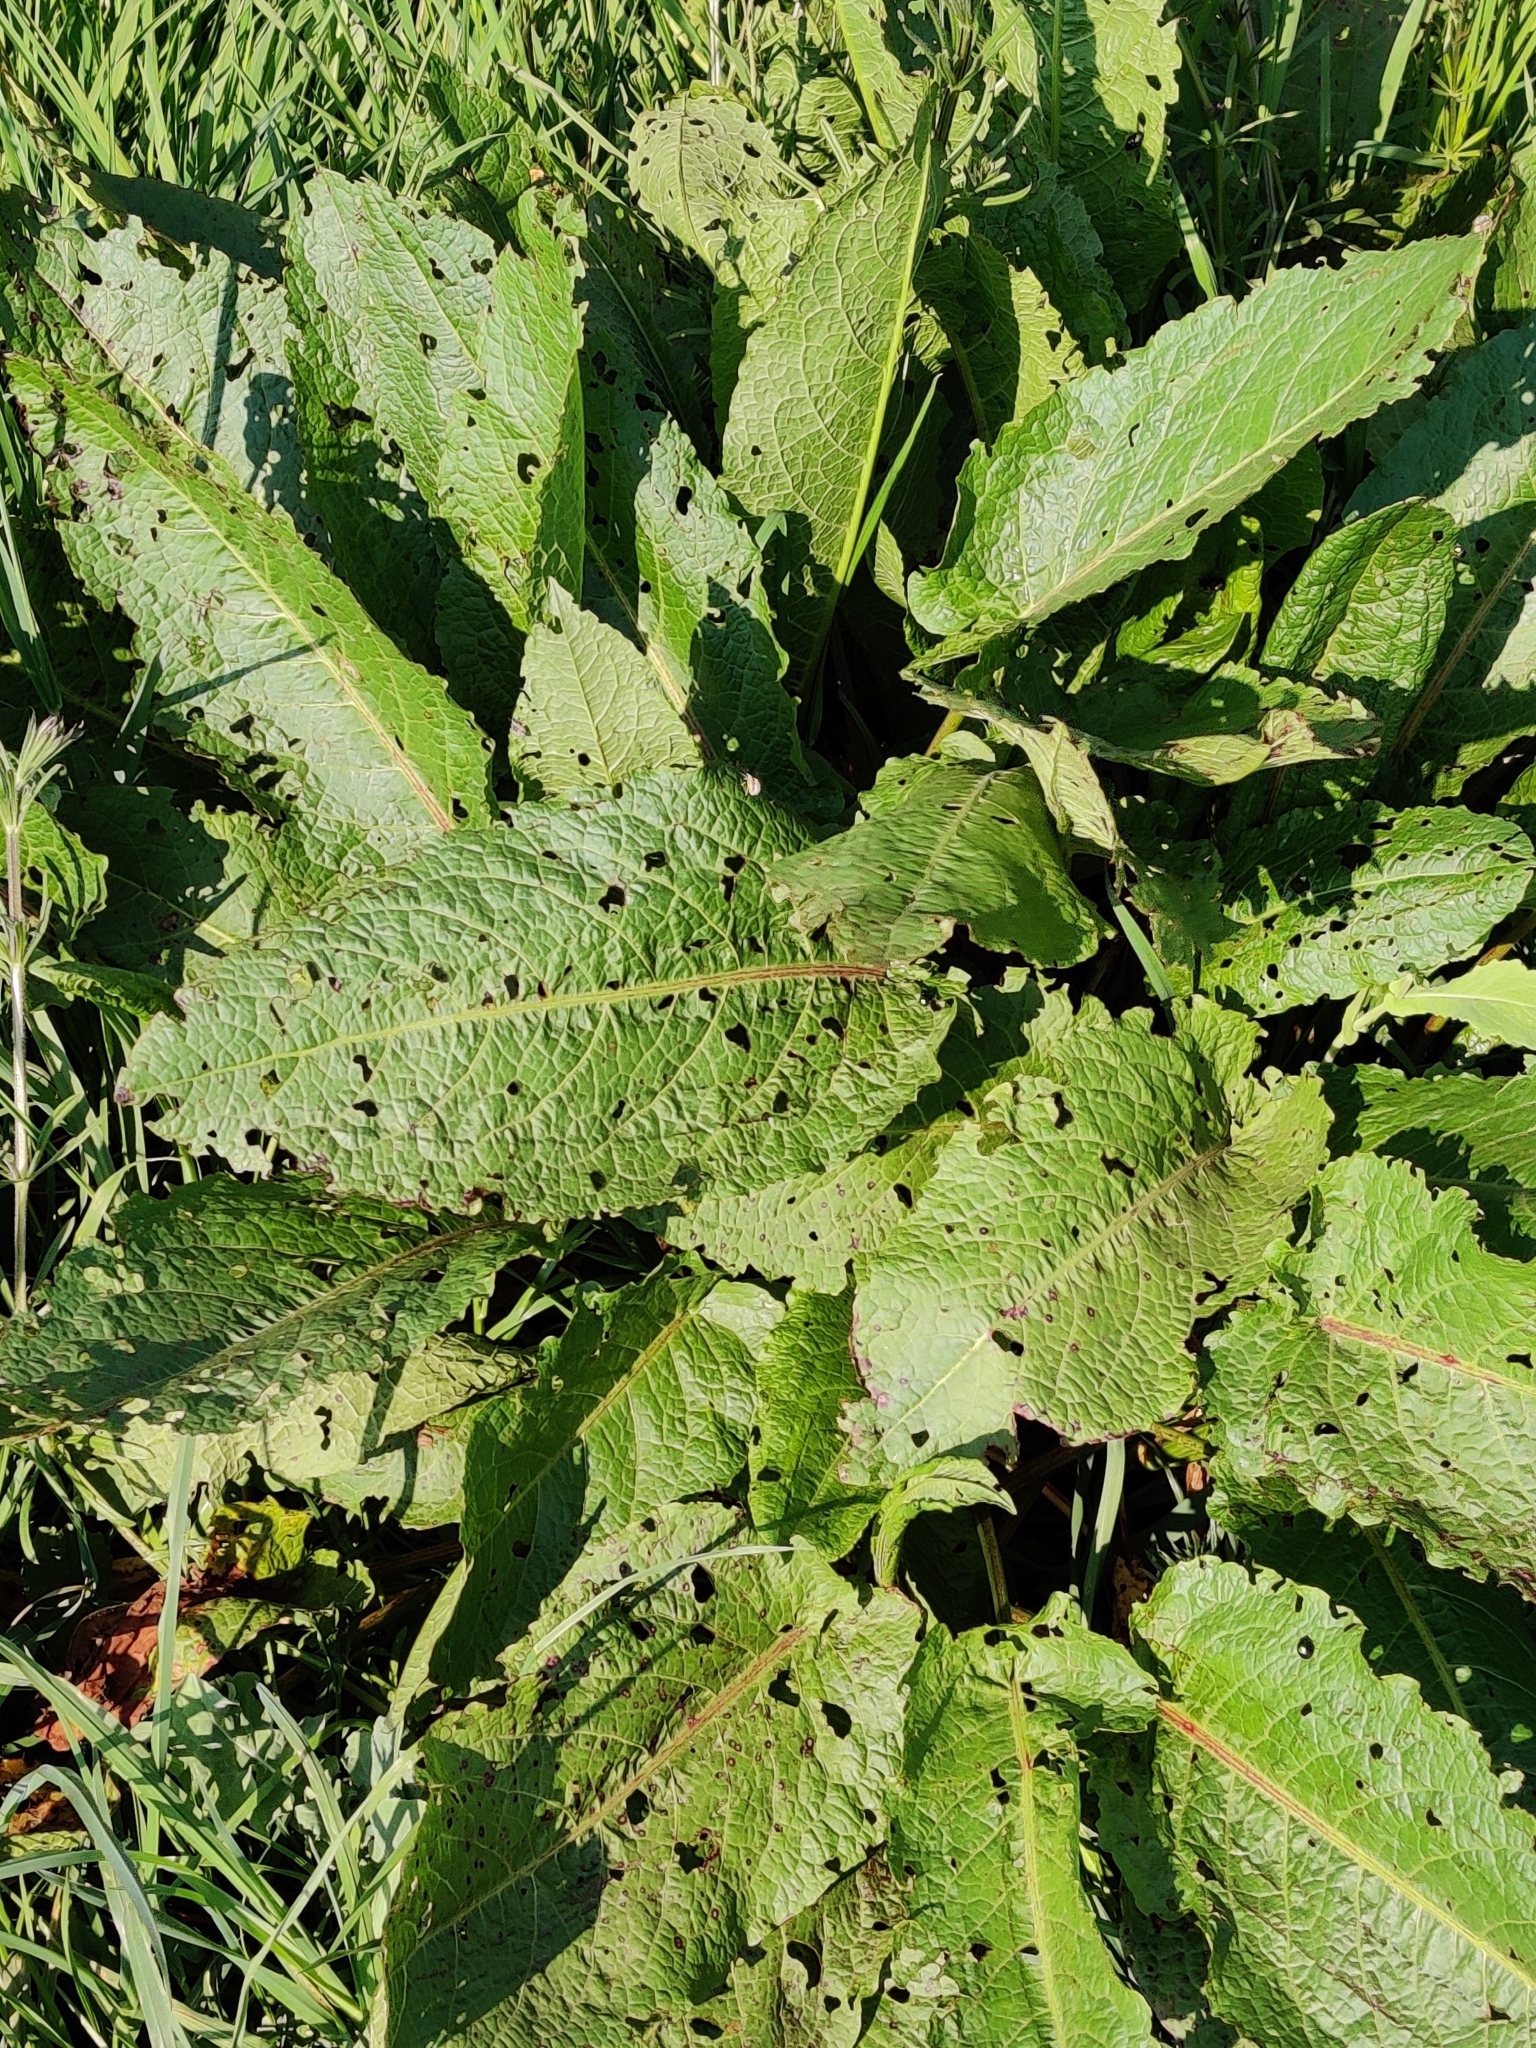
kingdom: Plantae
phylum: Tracheophyta
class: Magnoliopsida
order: Caryophyllales
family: Polygonaceae
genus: Rumex
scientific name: Rumex obtusifolius
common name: Bitter dock
